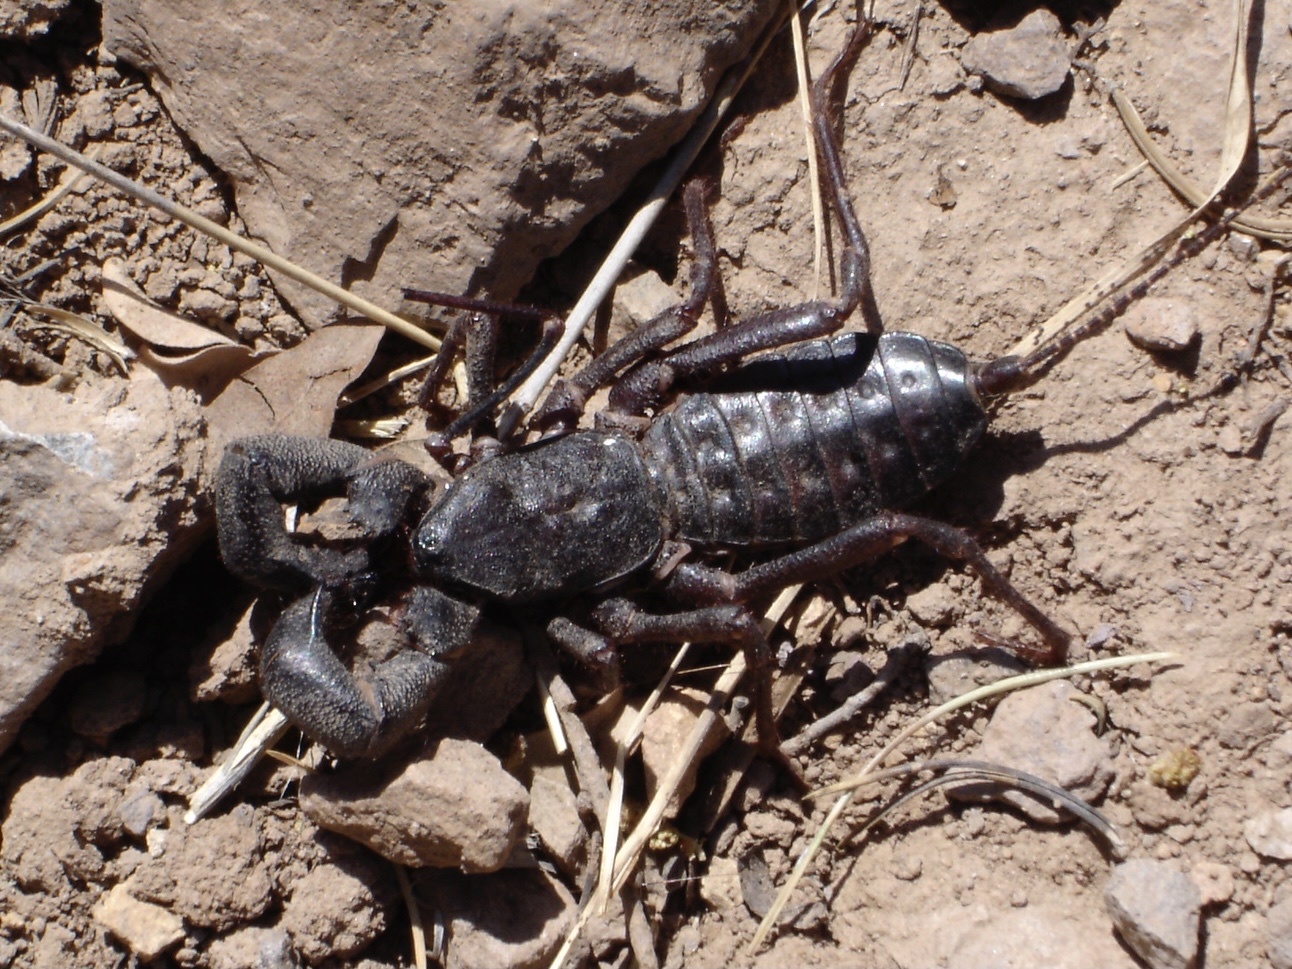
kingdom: Animalia
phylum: Arthropoda
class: Arachnida
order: Uropygi
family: Thelyphonidae
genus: Mastigoproctus
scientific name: Mastigoproctus giganteus
